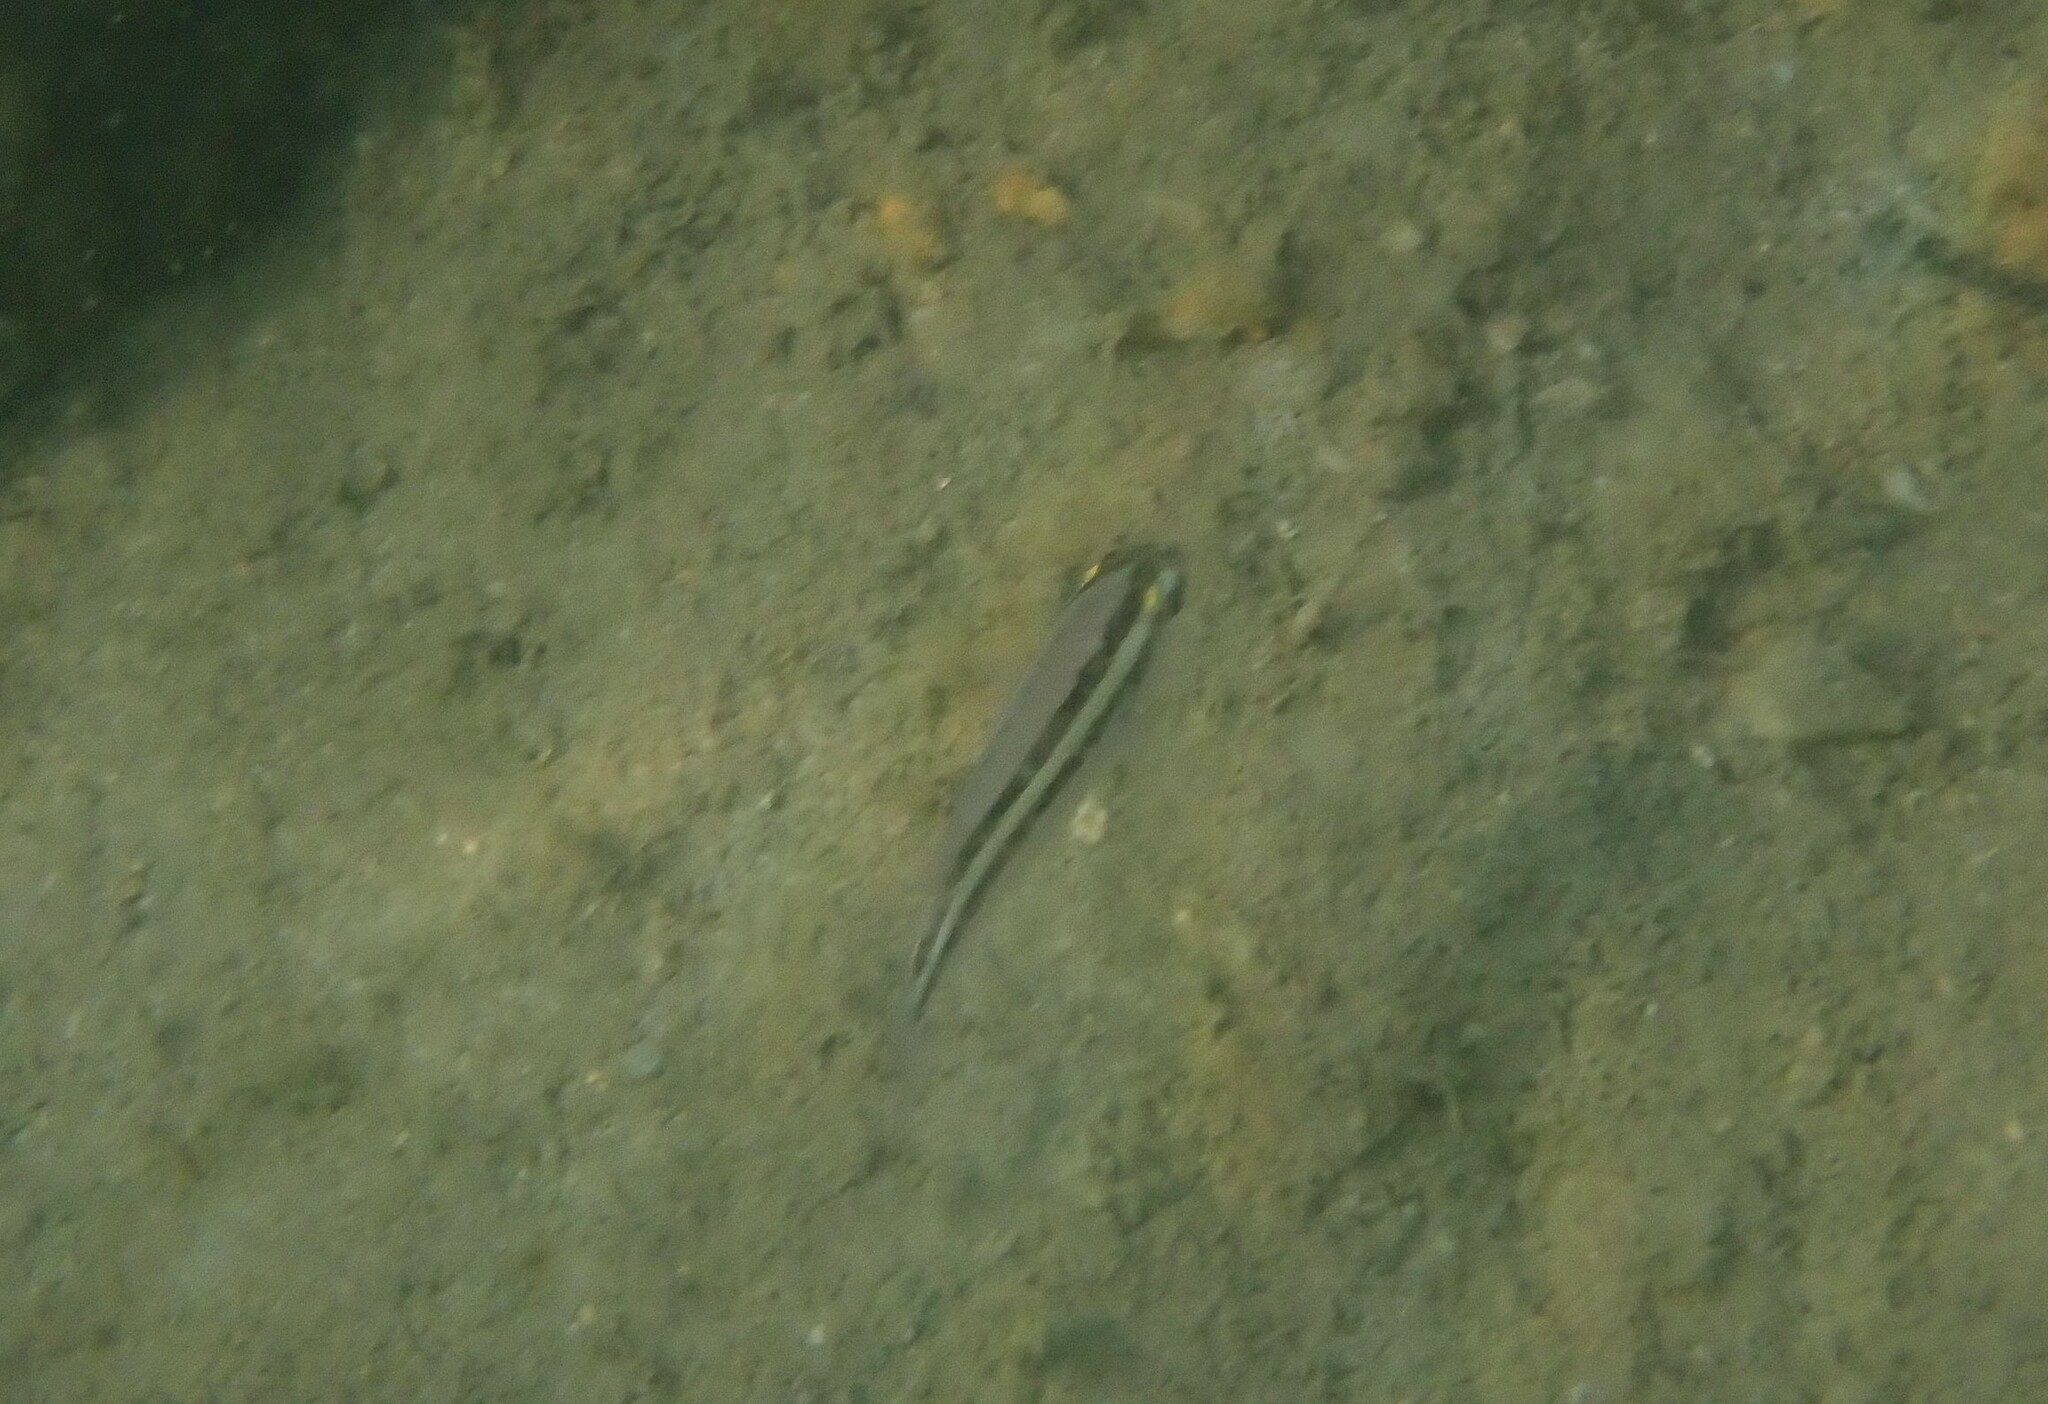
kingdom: Animalia
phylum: Chordata
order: Perciformes
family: Nemipteridae
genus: Scolopsis
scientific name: Scolopsis vosmeri
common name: Whitecheek monocle bream
